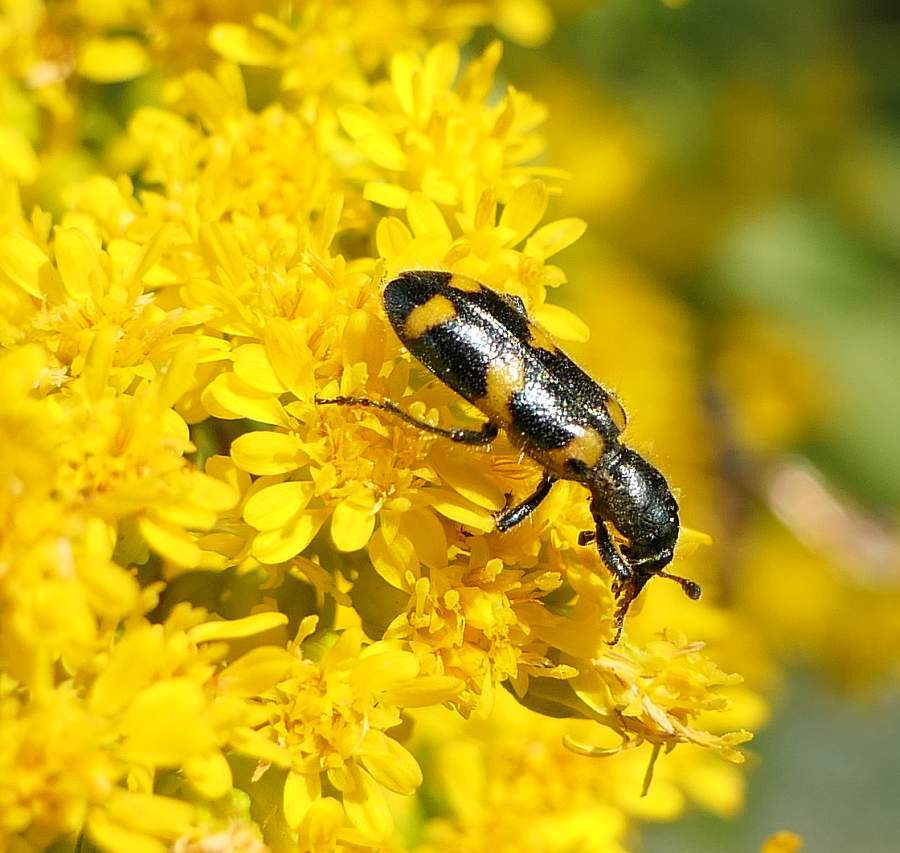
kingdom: Animalia
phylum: Arthropoda
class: Insecta
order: Coleoptera
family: Cleridae
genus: Trichodes
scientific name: Trichodes nutalli
